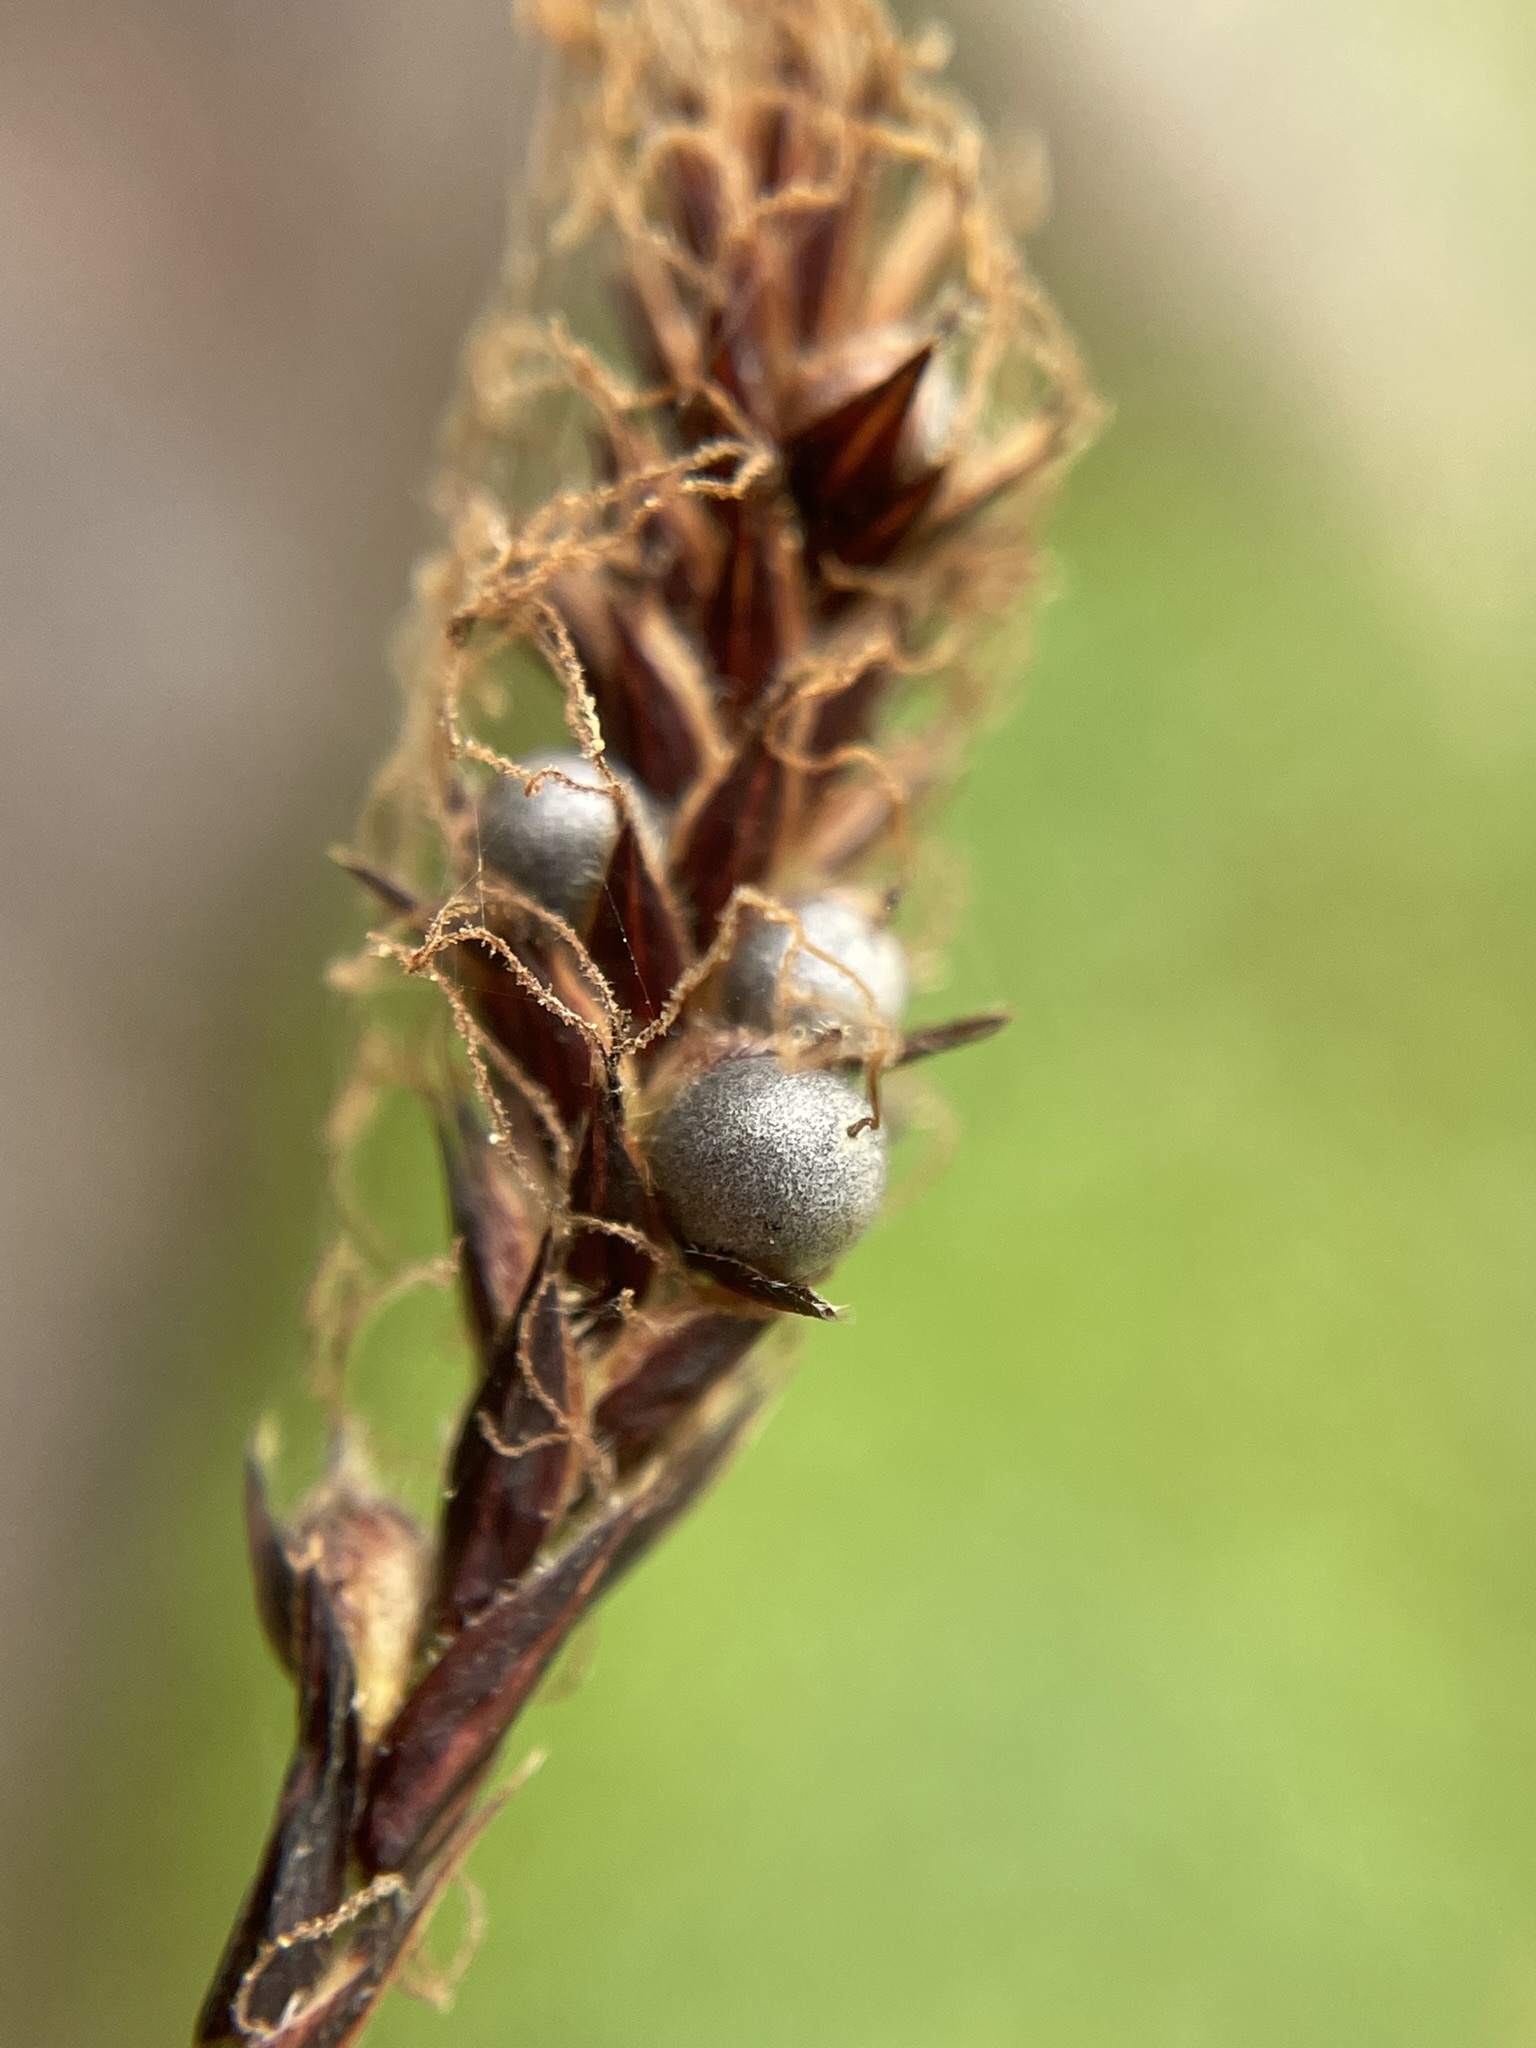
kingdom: Fungi
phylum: Basidiomycota
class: Ustilaginomycetes
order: Ustilaginales
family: Anthracoideaceae
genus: Anthracoidea
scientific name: Anthracoidea scirpoideae
